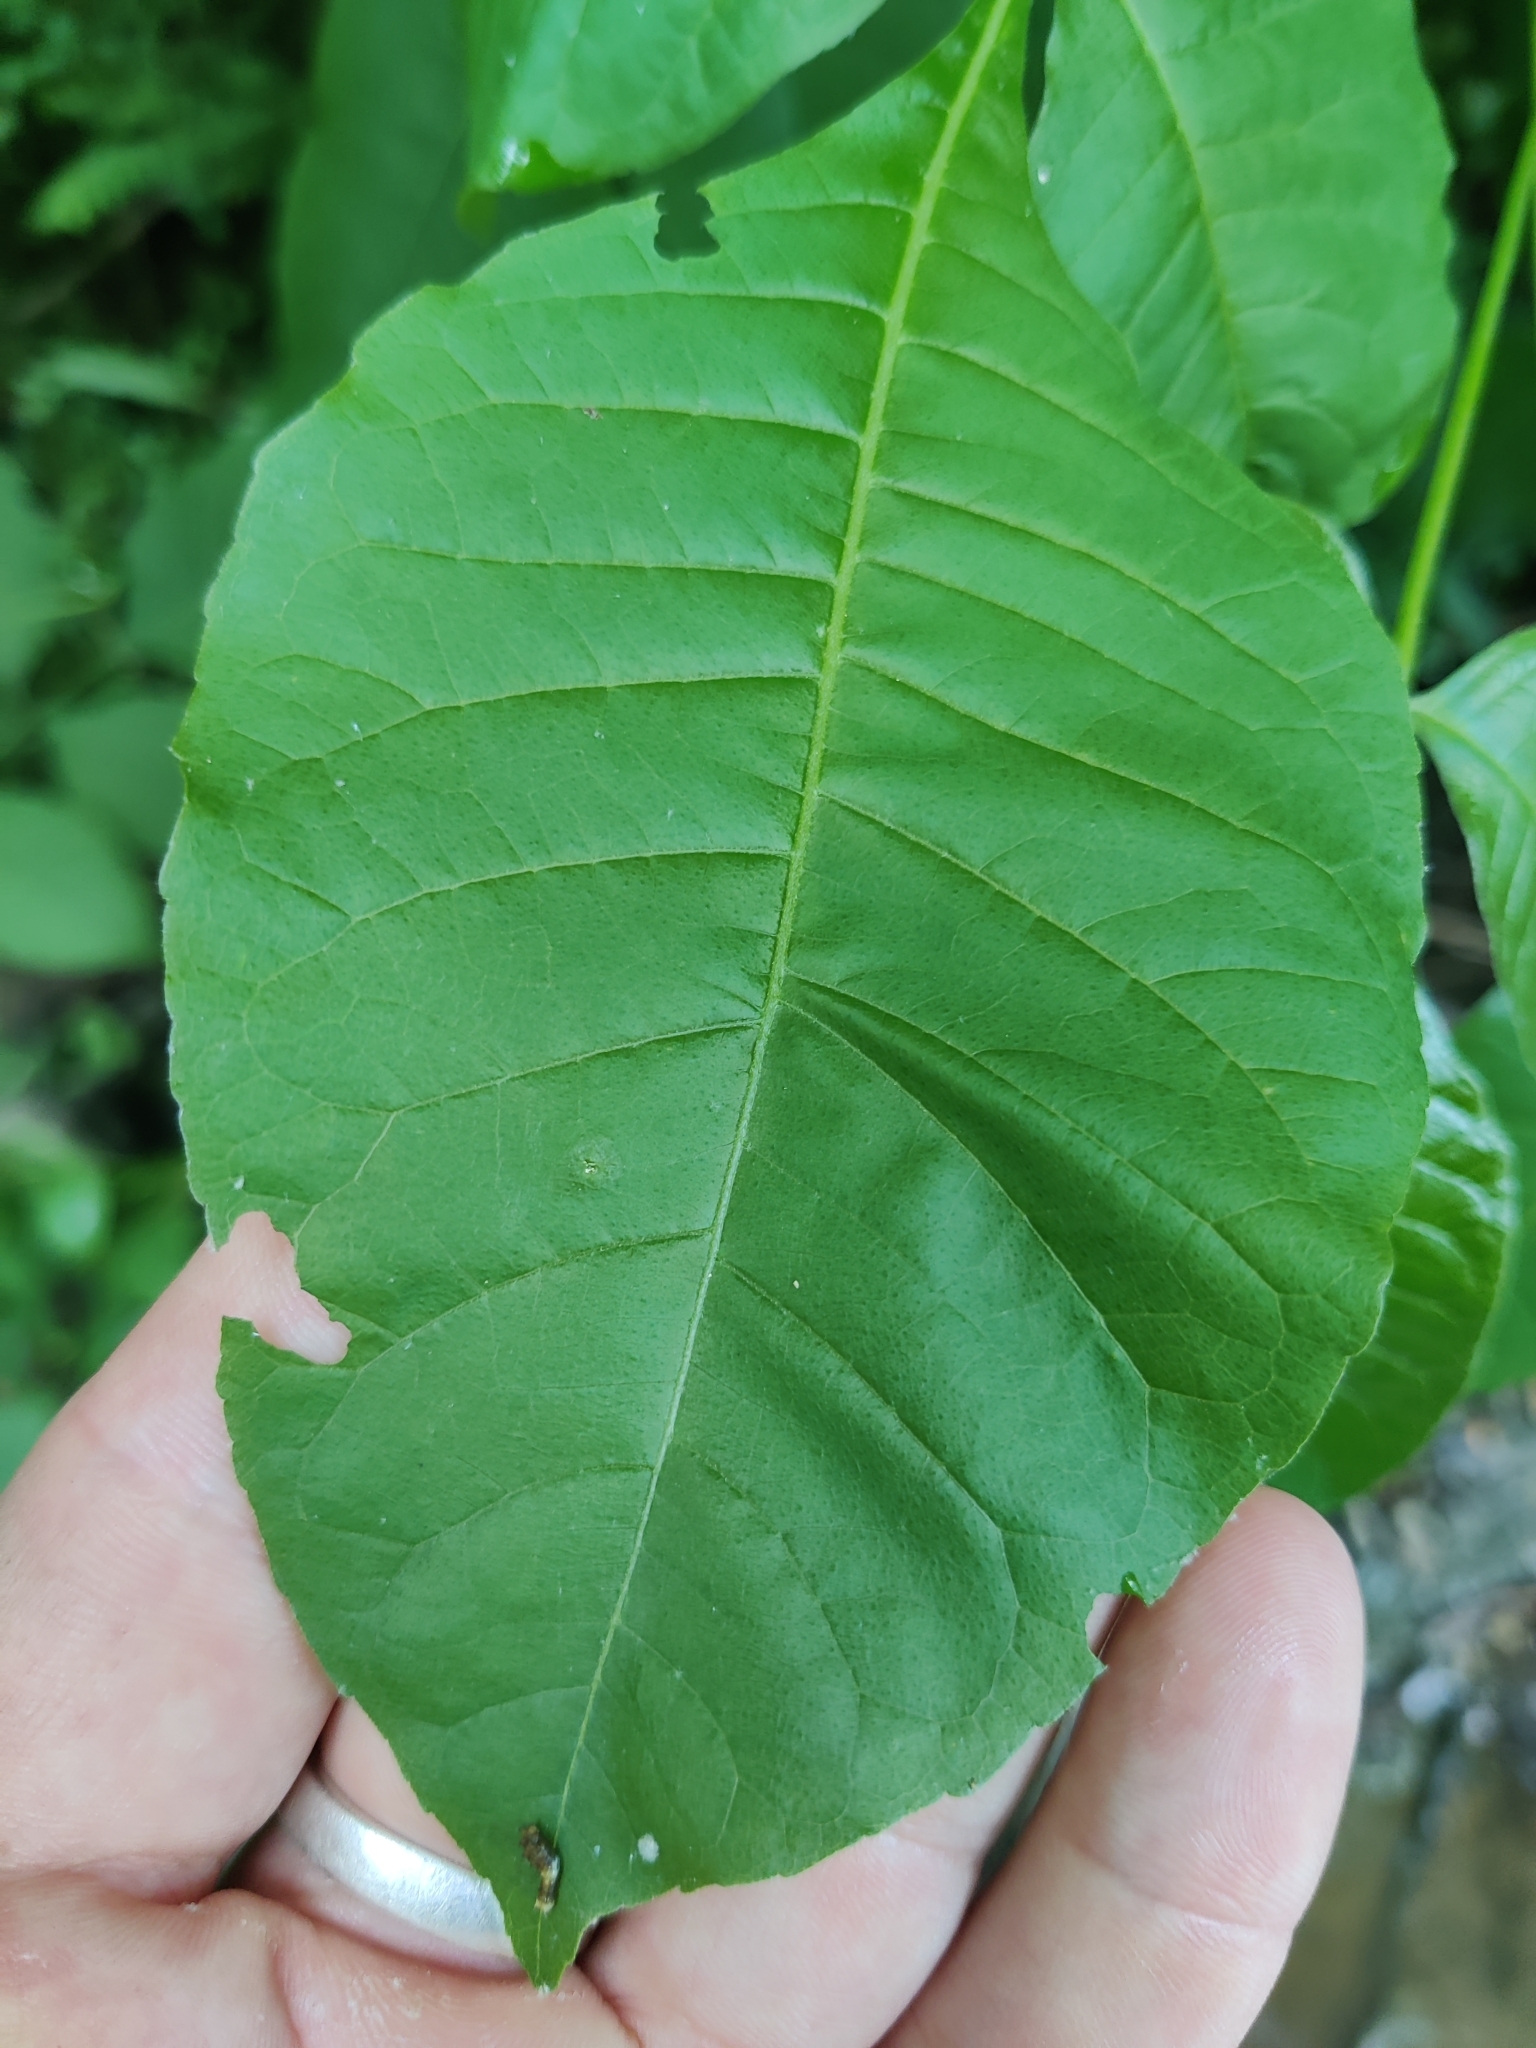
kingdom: Plantae
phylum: Tracheophyta
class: Magnoliopsida
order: Sapindales
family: Rutaceae
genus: Ptelea
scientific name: Ptelea trifoliata
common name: Common hop-tree
